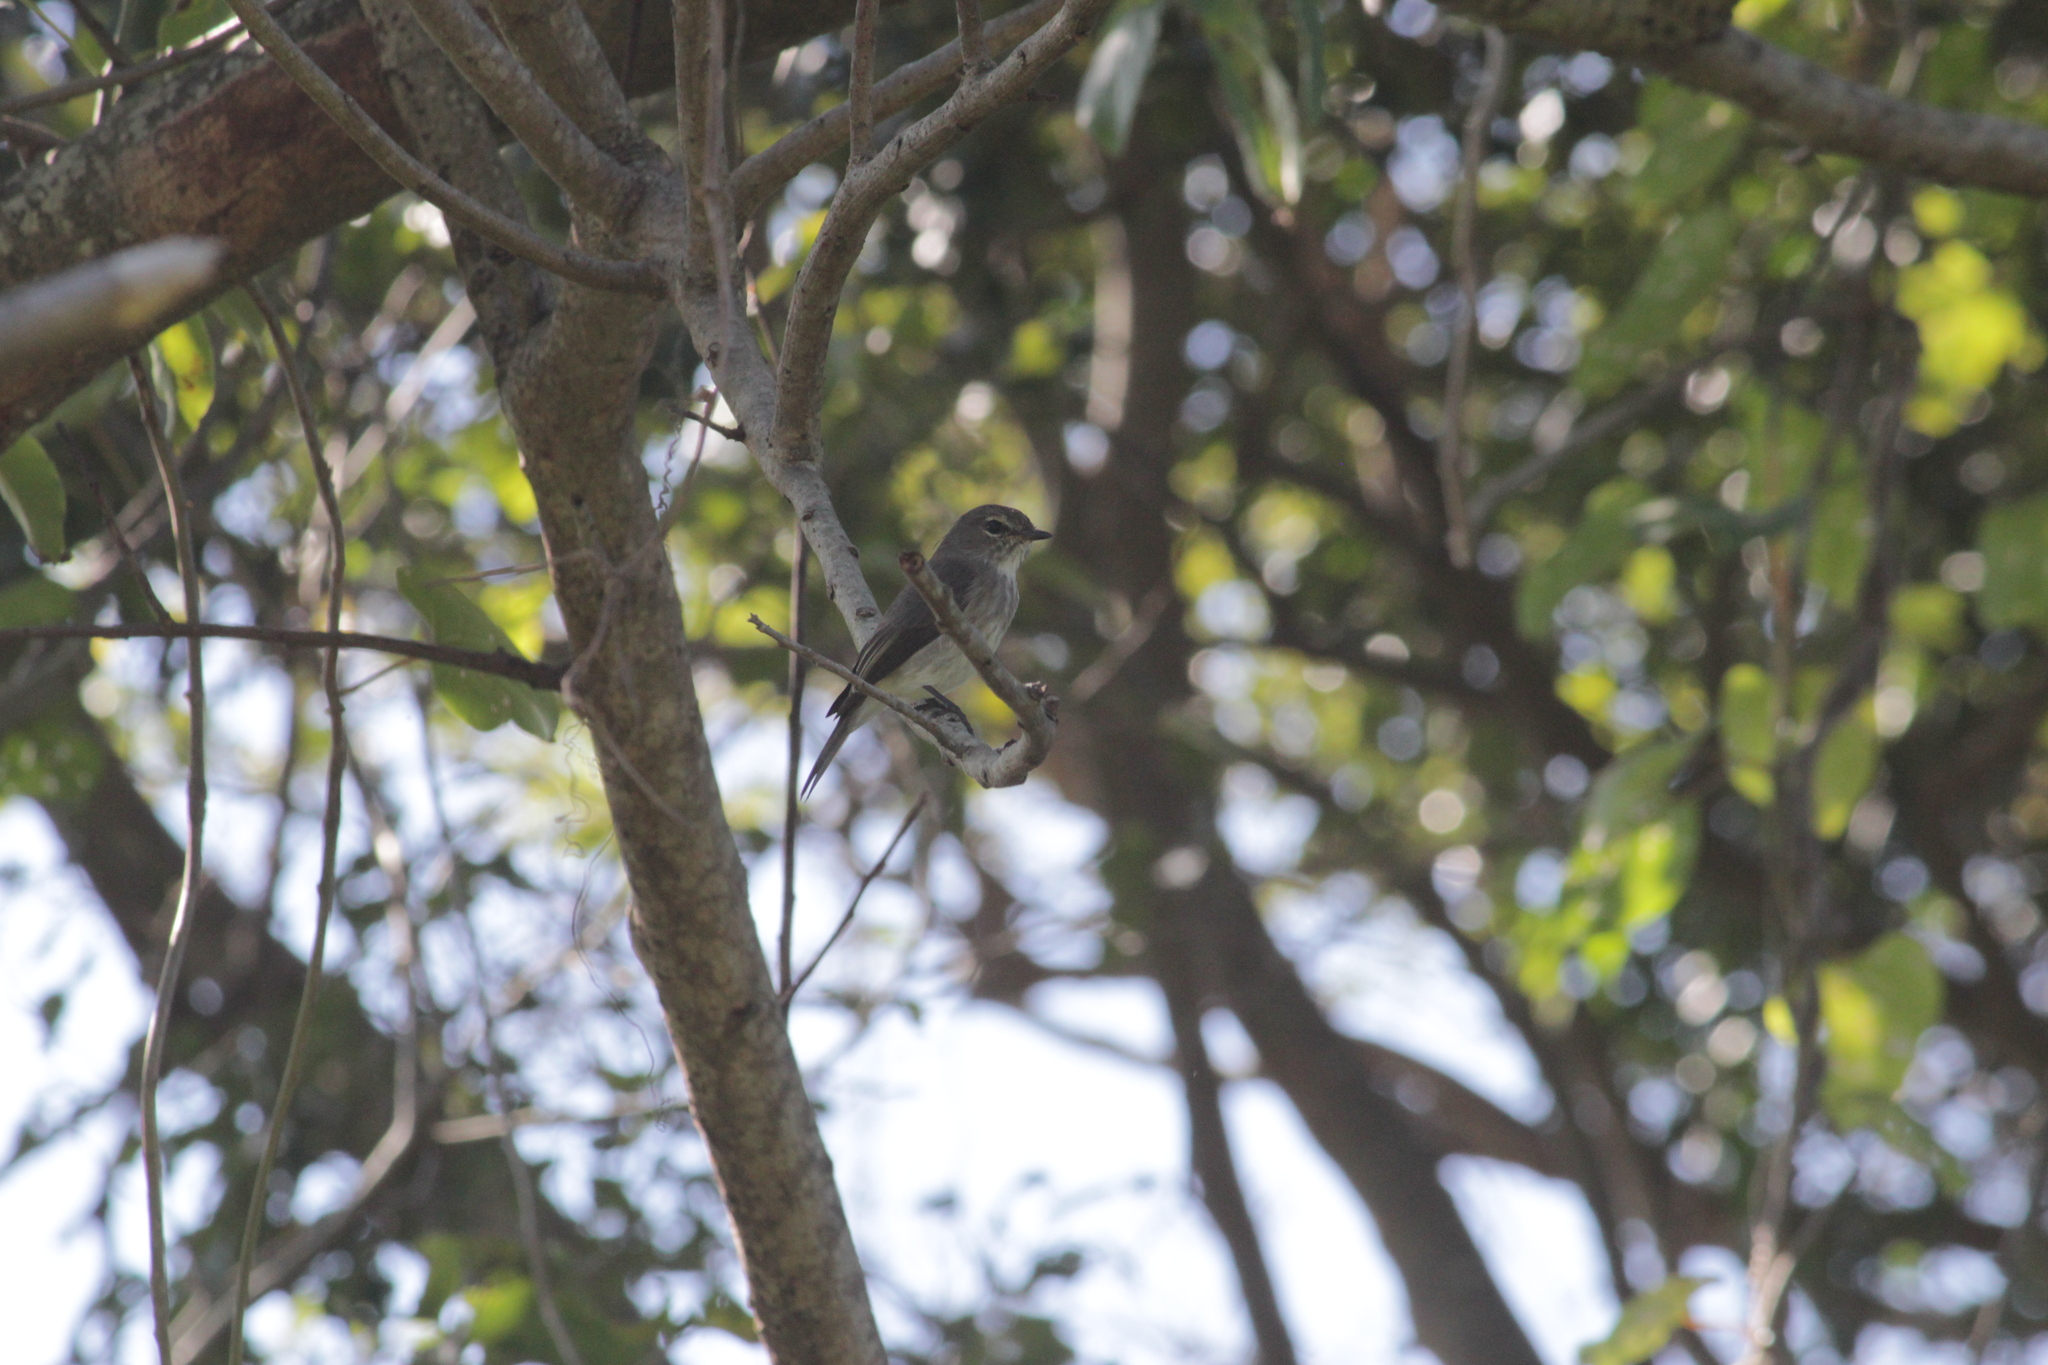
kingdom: Animalia
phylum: Chordata
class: Aves
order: Passeriformes
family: Muscicapidae
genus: Muscicapa
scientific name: Muscicapa adusta
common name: African dusky flycatcher
